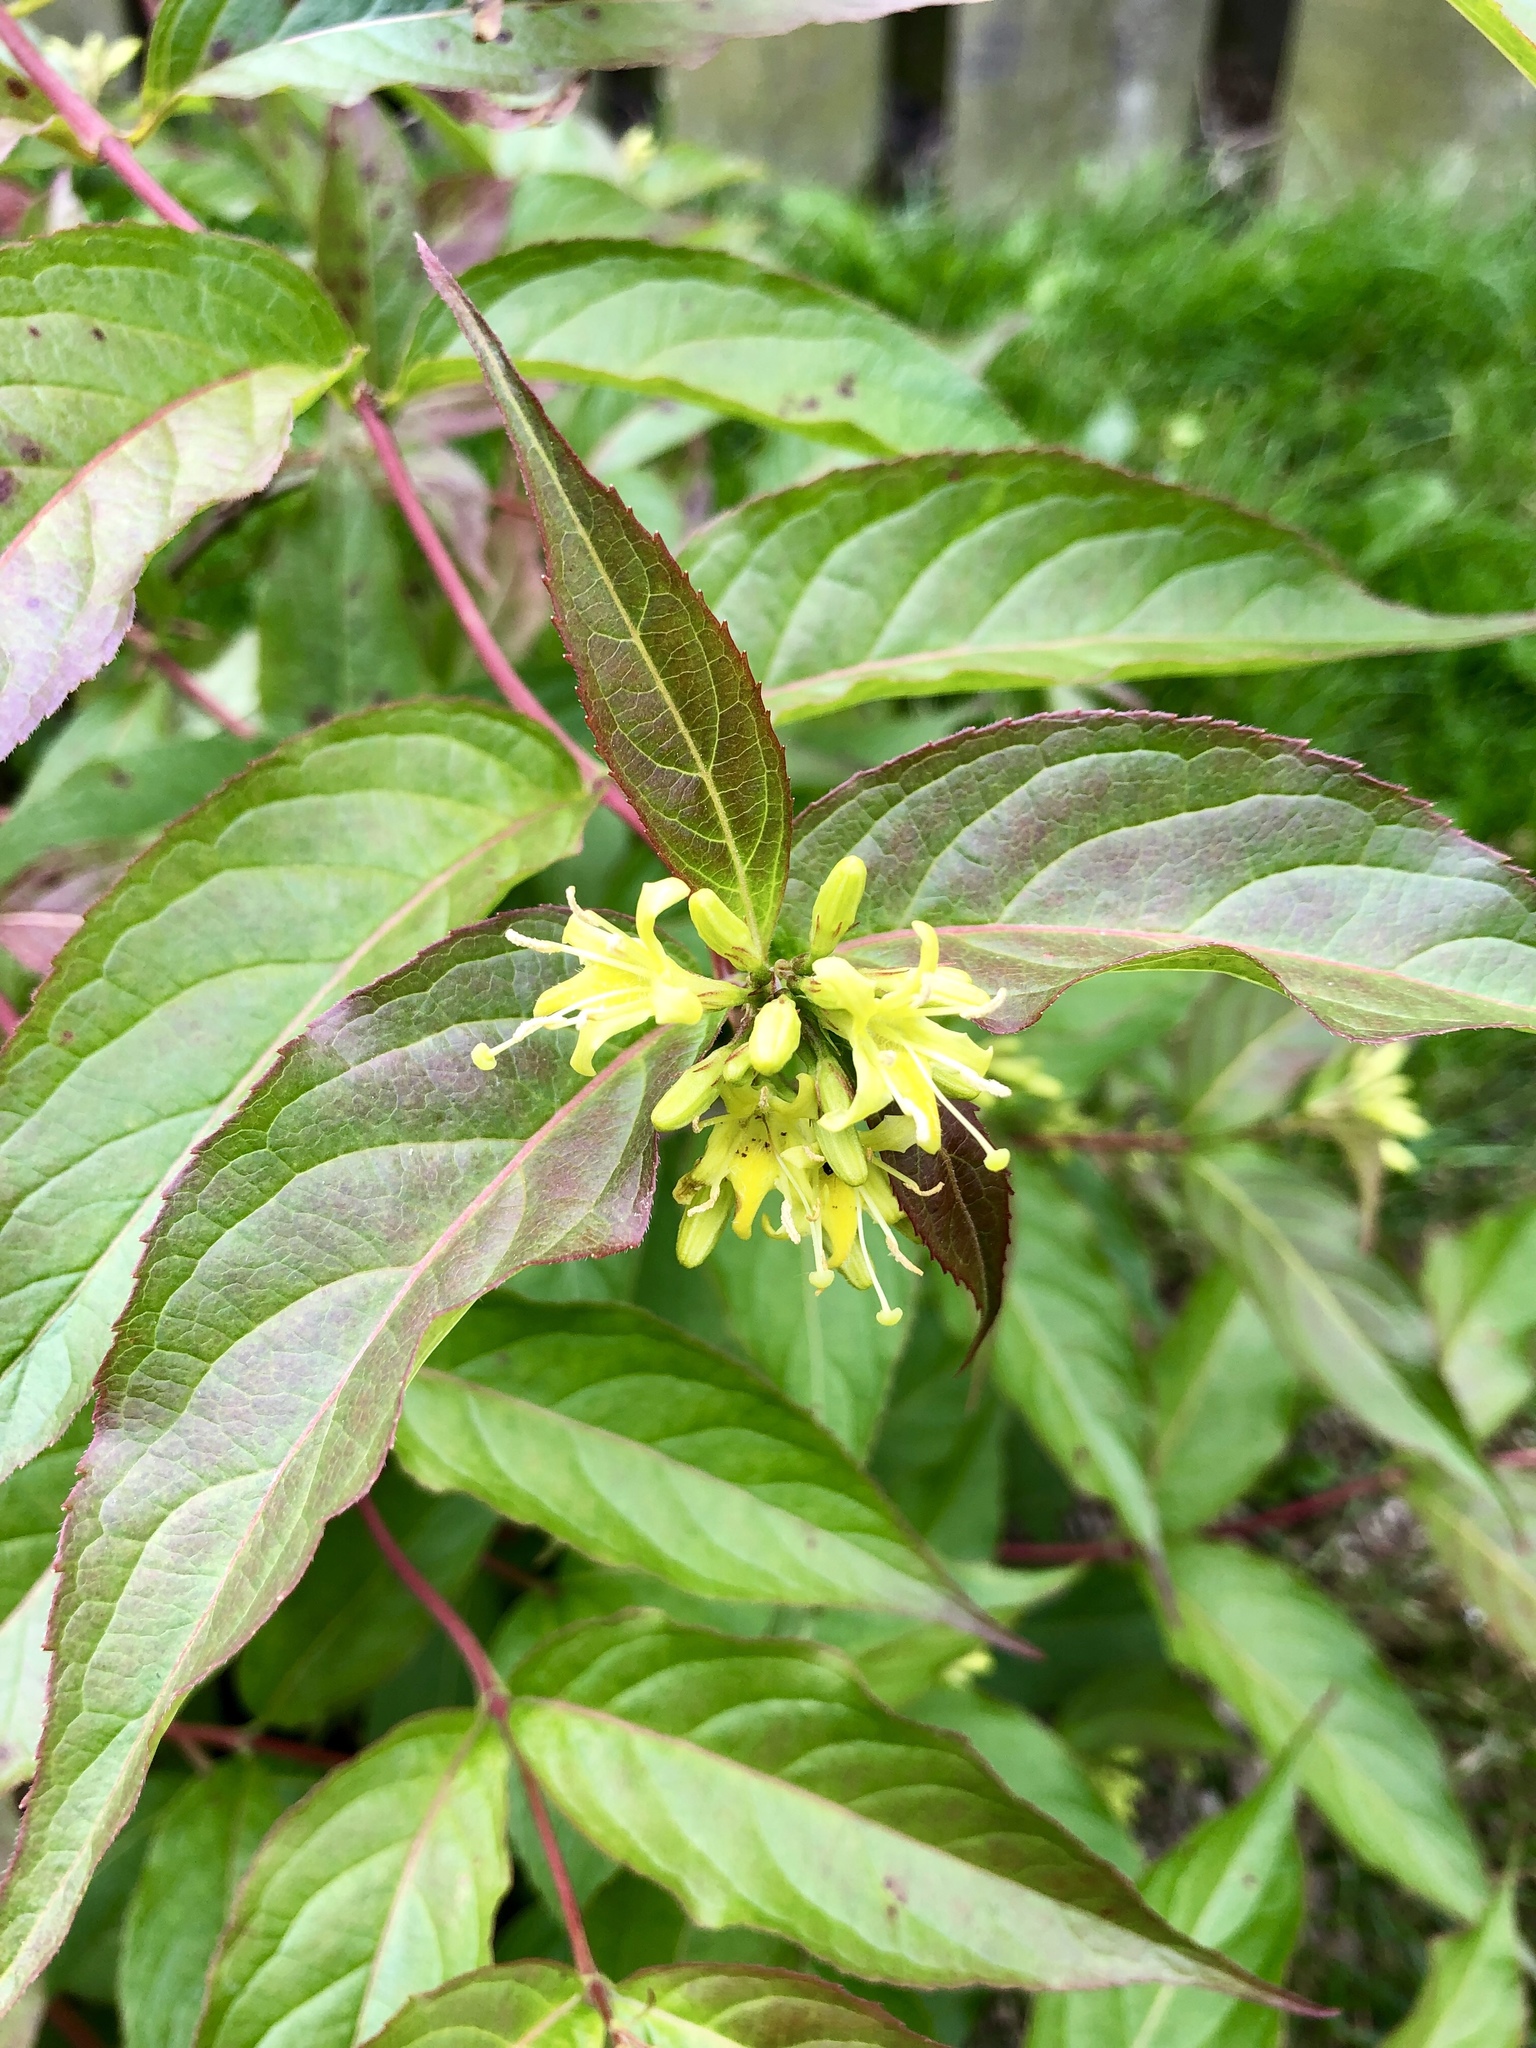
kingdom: Plantae
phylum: Tracheophyta
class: Magnoliopsida
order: Dipsacales
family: Caprifoliaceae
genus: Diervilla
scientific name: Diervilla lonicera
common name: Bush-honeysuckle
